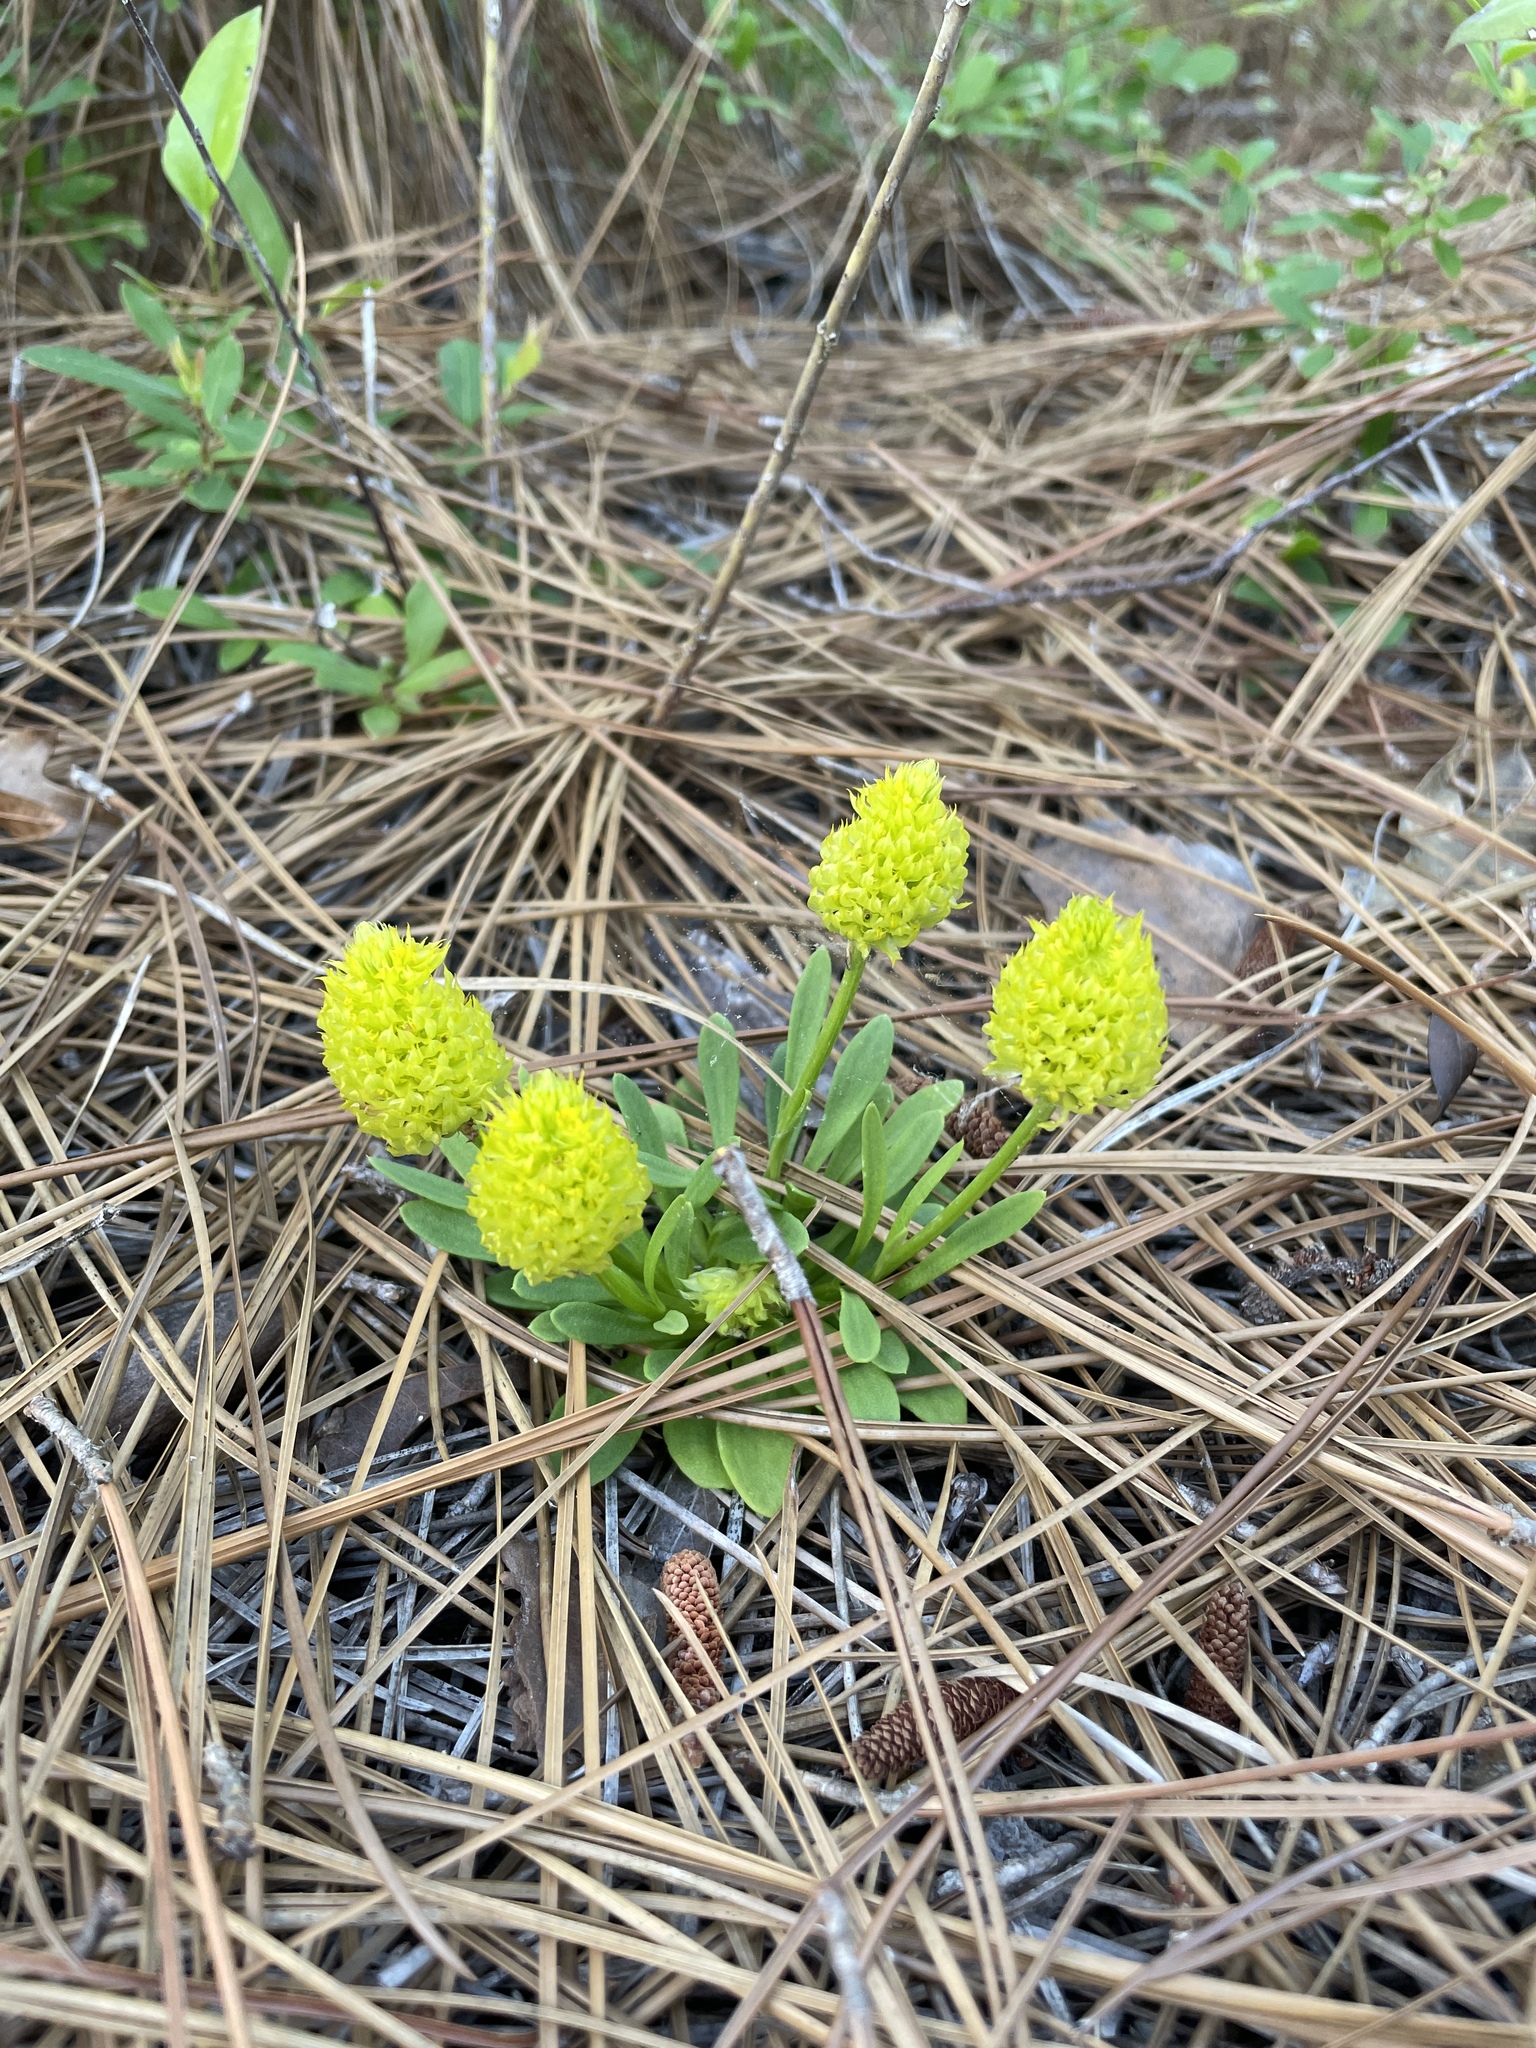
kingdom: Plantae
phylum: Tracheophyta
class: Magnoliopsida
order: Fabales
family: Polygalaceae
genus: Polygala
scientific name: Polygala nana
